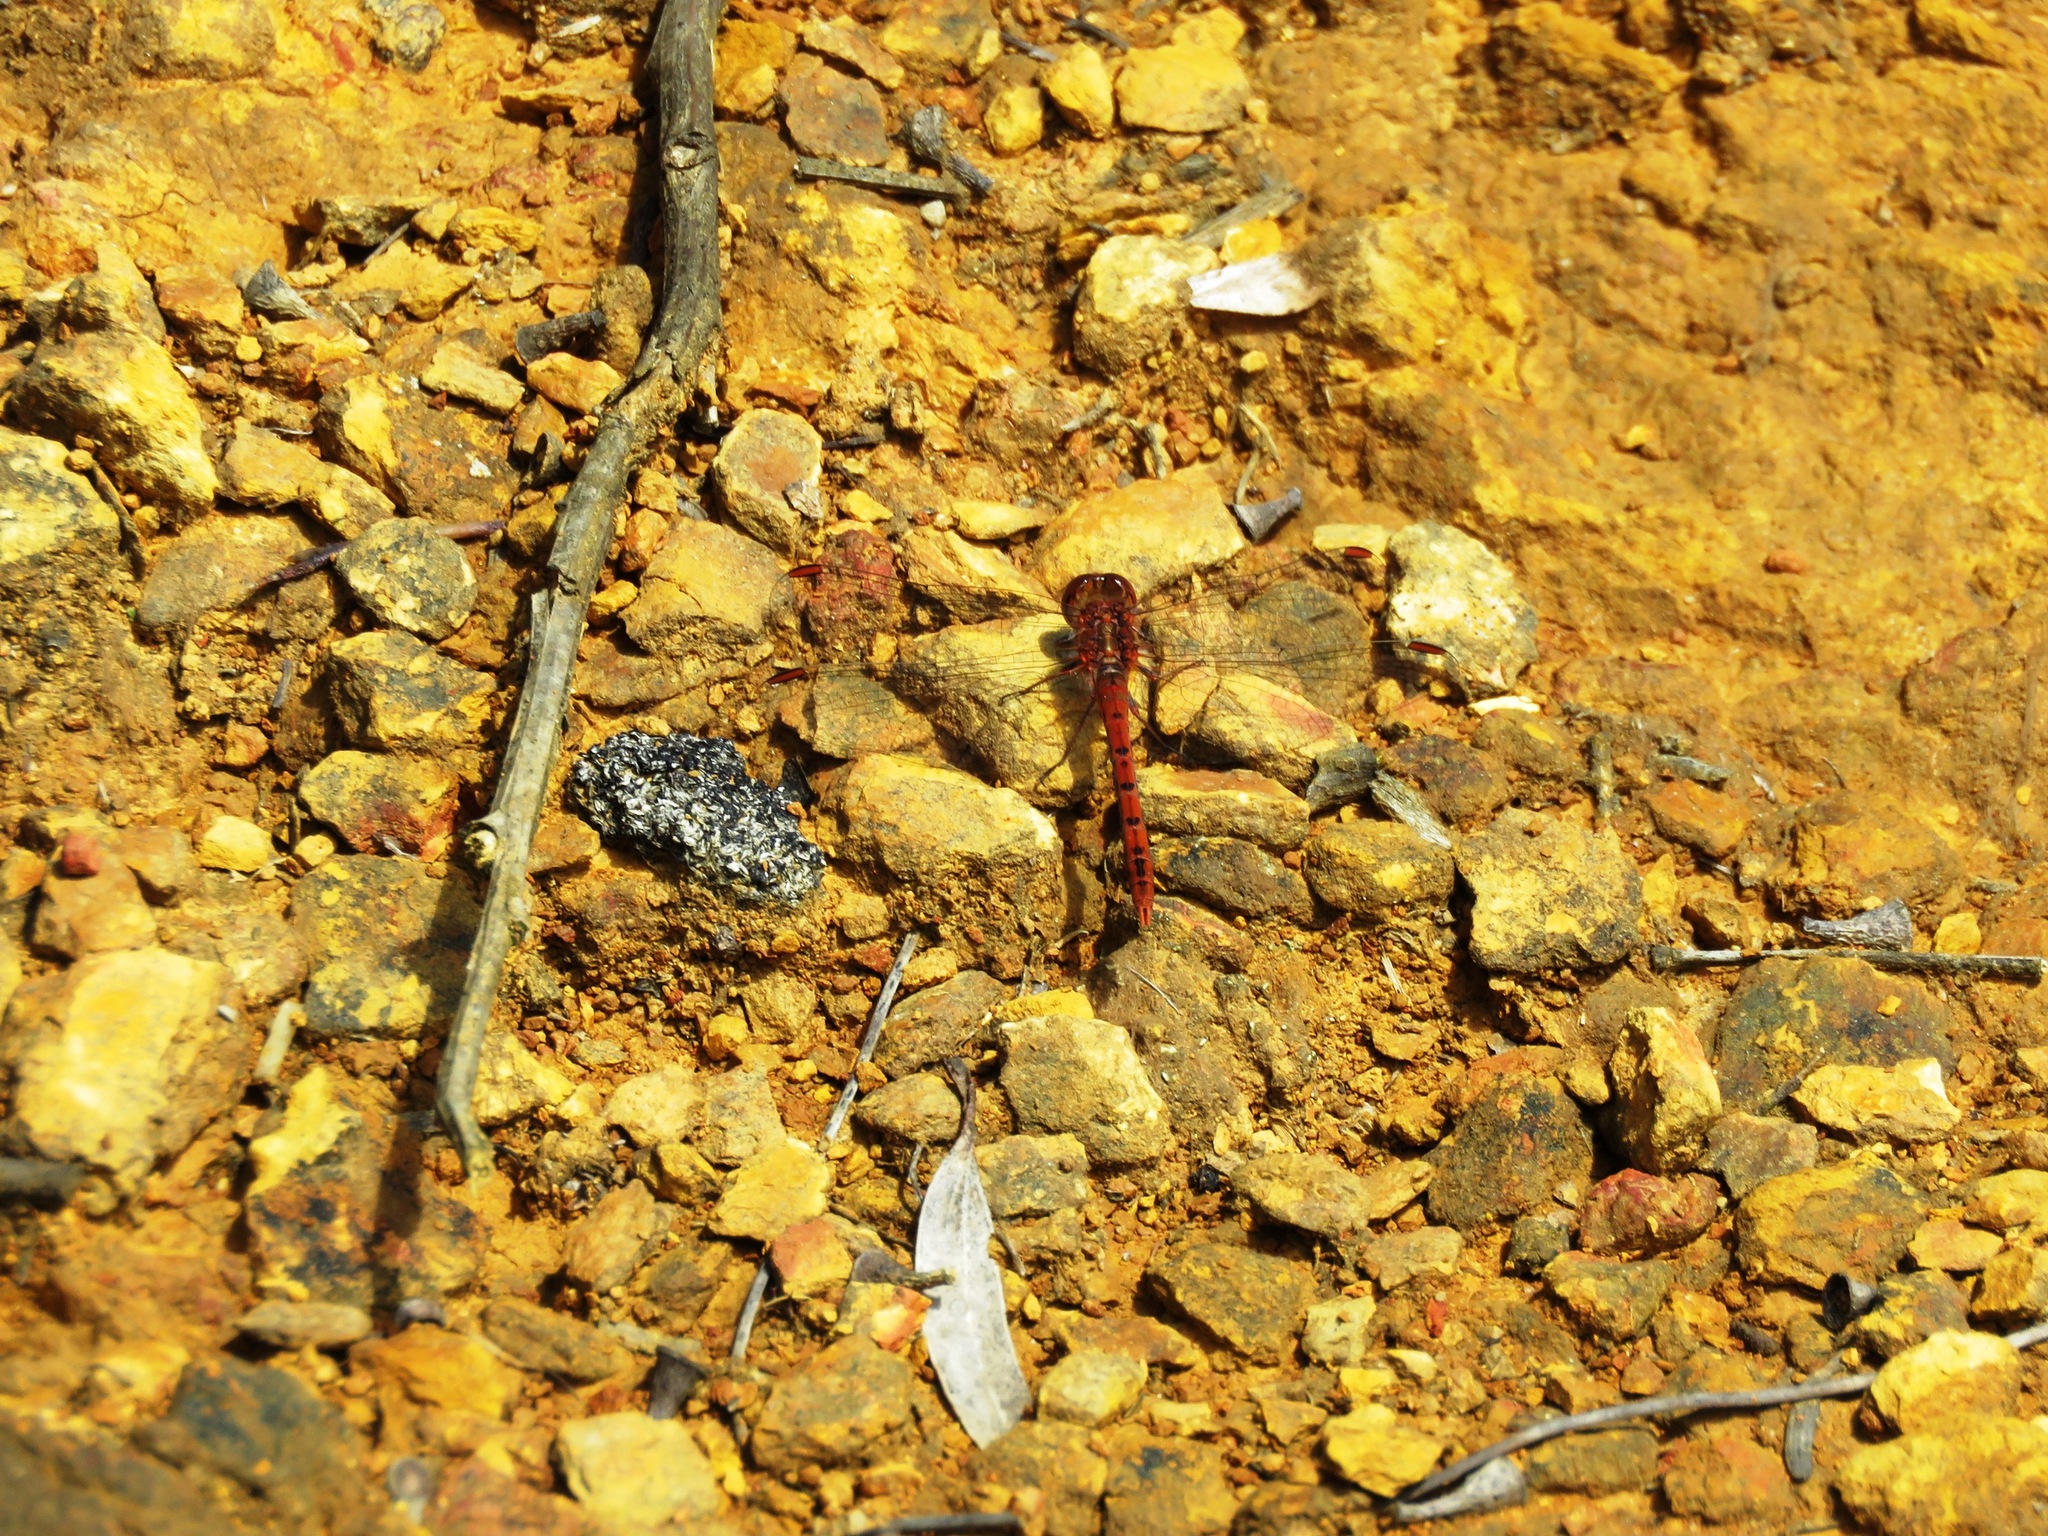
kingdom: Animalia
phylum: Arthropoda
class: Insecta
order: Odonata
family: Libellulidae
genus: Diplacodes
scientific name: Diplacodes bipunctata
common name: Red percher dragonfly
